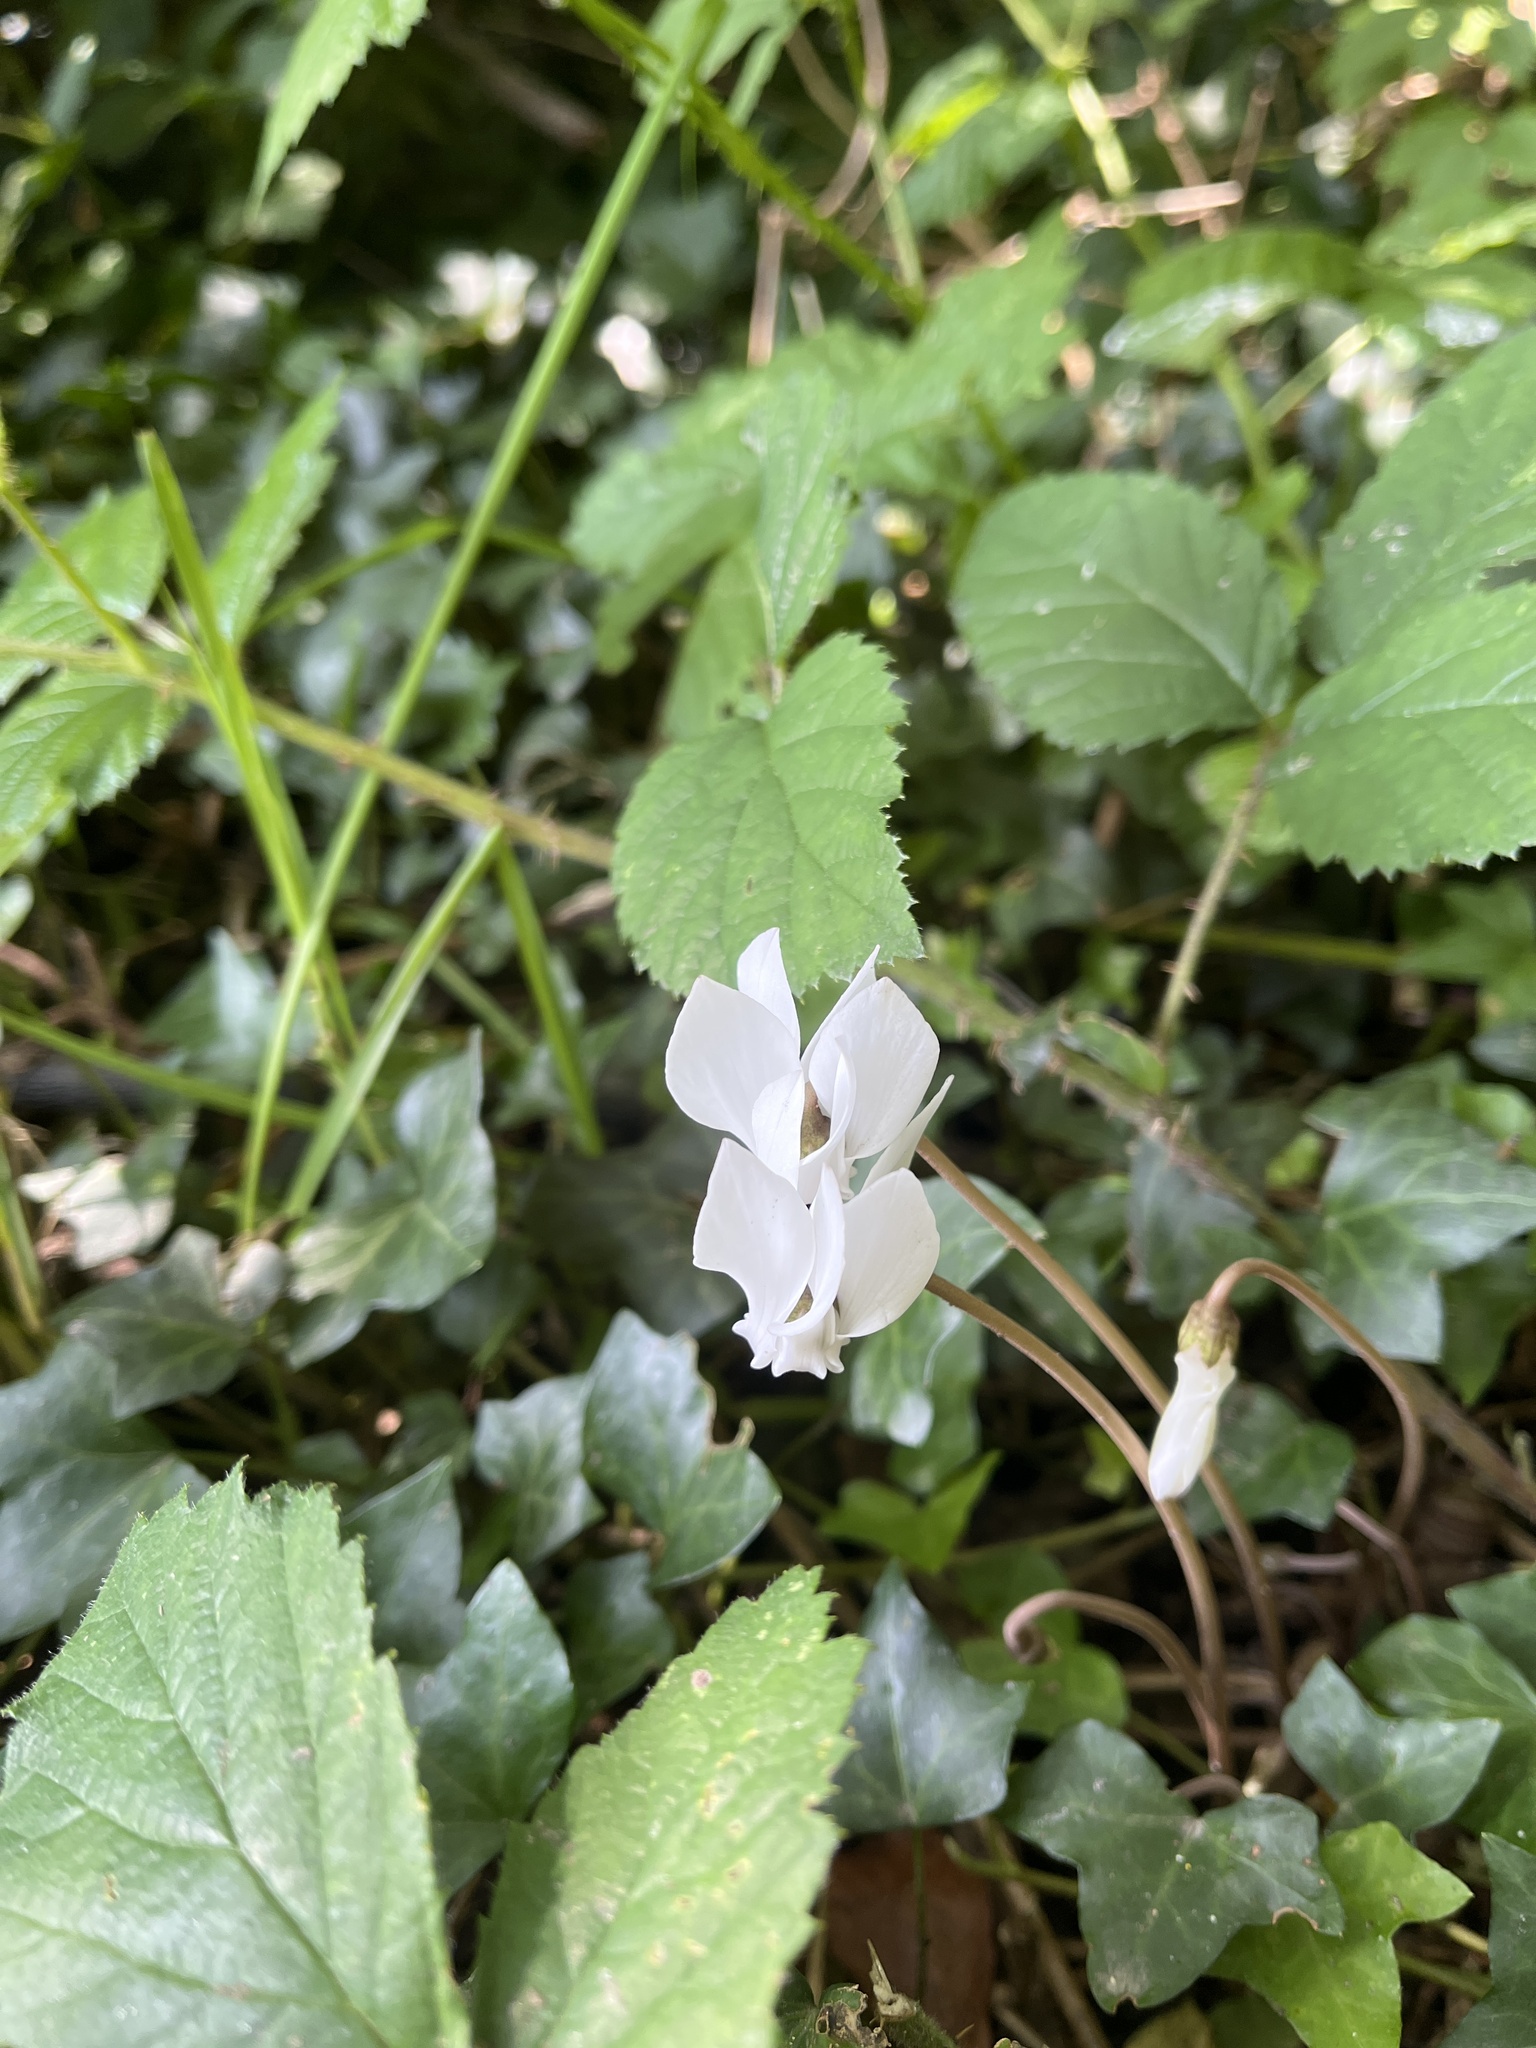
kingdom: Plantae
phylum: Tracheophyta
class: Magnoliopsida
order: Ericales
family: Primulaceae
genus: Cyclamen
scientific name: Cyclamen hederifolium
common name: Sowbread
